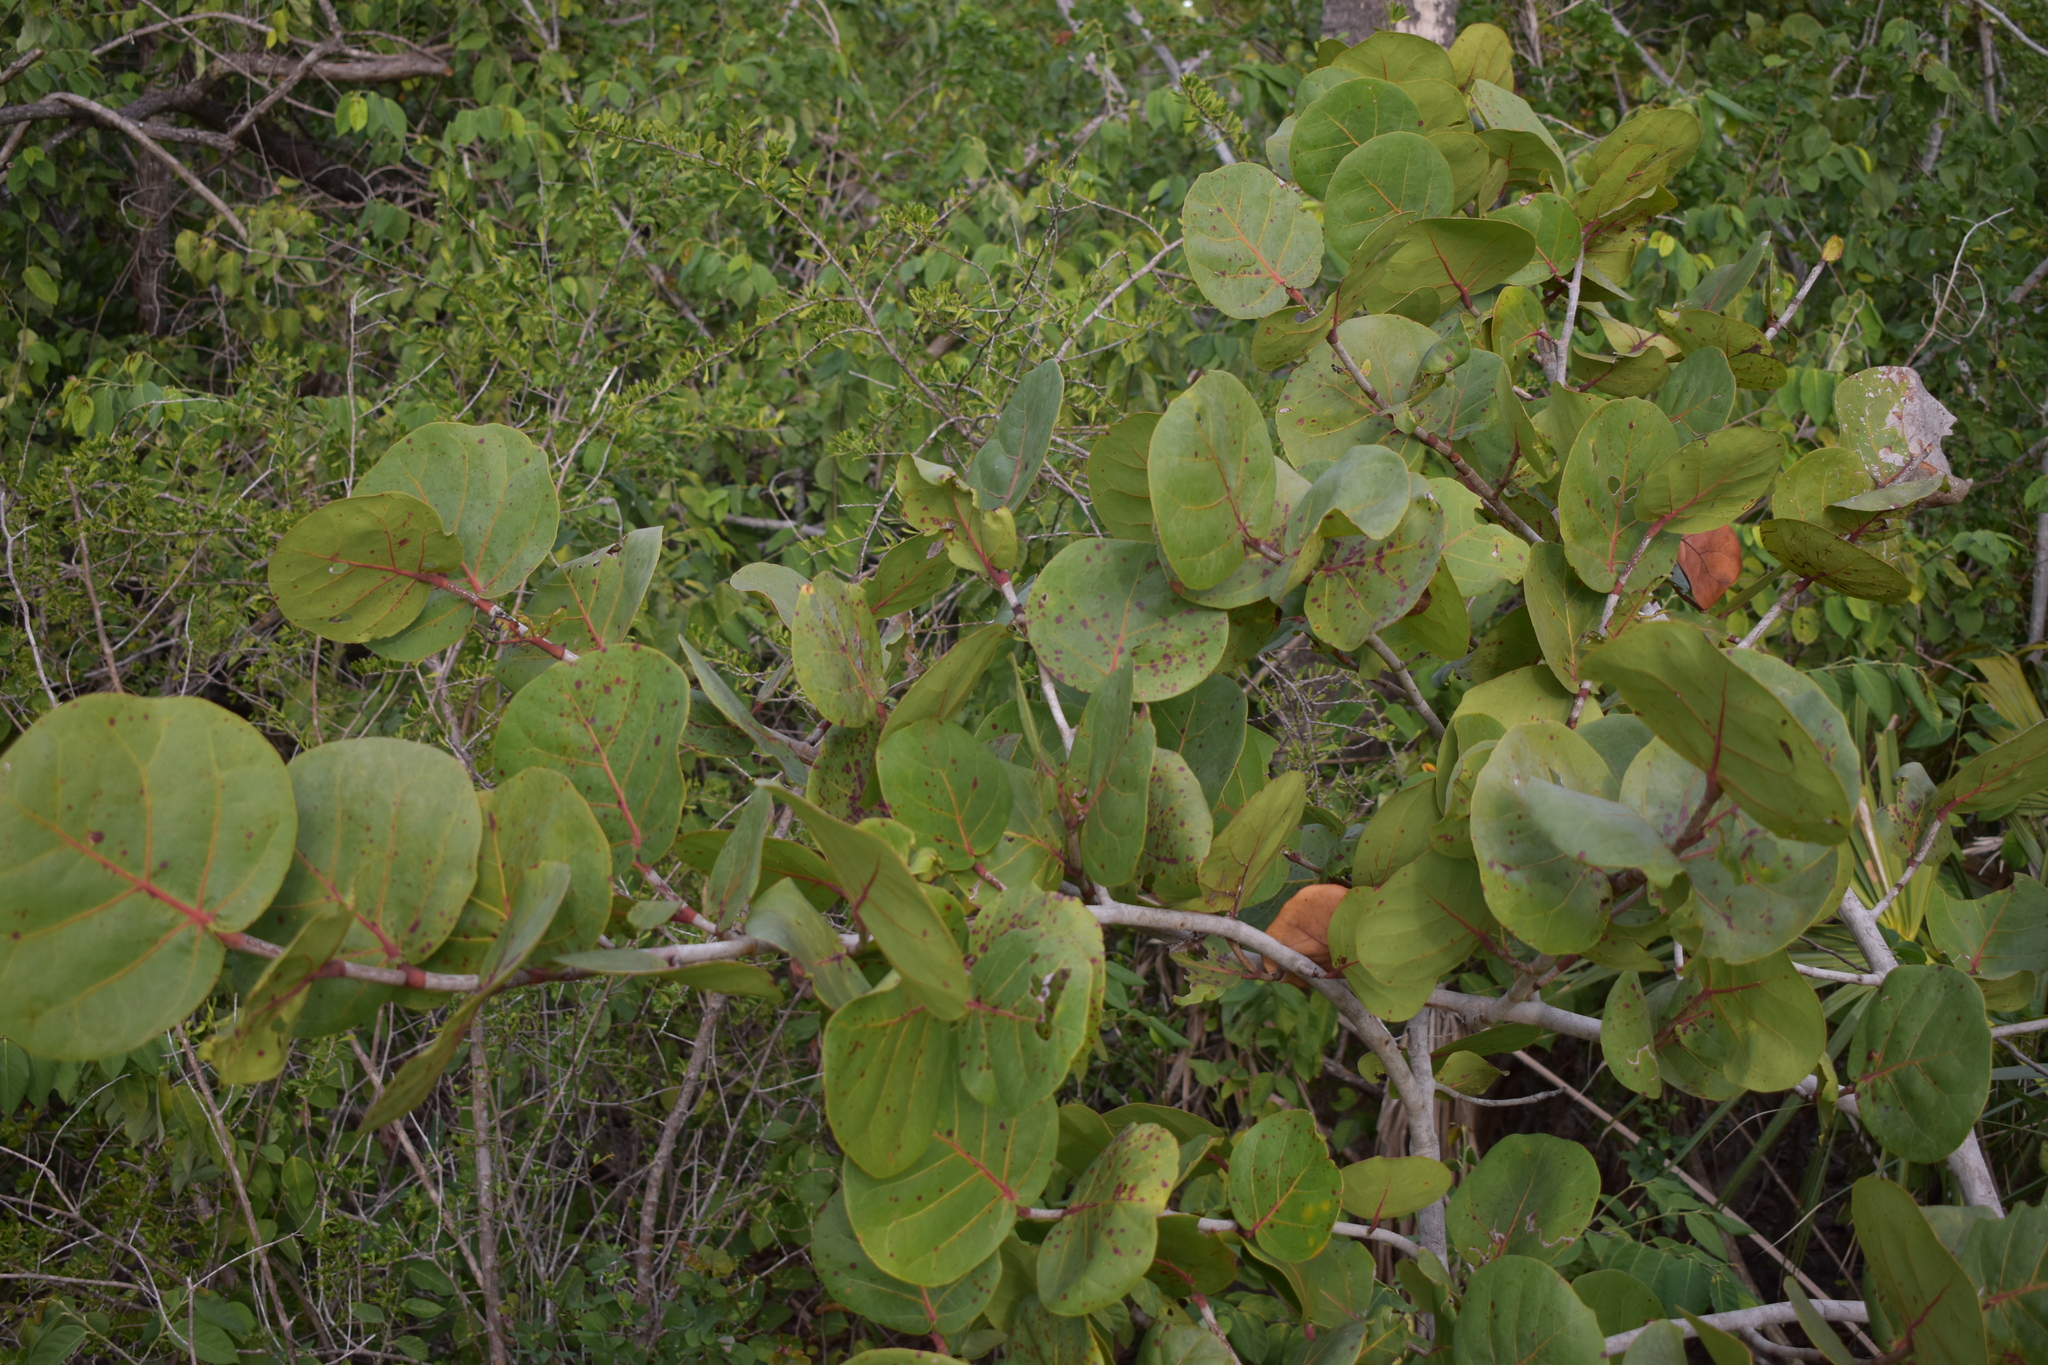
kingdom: Plantae
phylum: Tracheophyta
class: Magnoliopsida
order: Caryophyllales
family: Polygonaceae
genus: Coccoloba
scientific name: Coccoloba uvifera
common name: Seagrape
